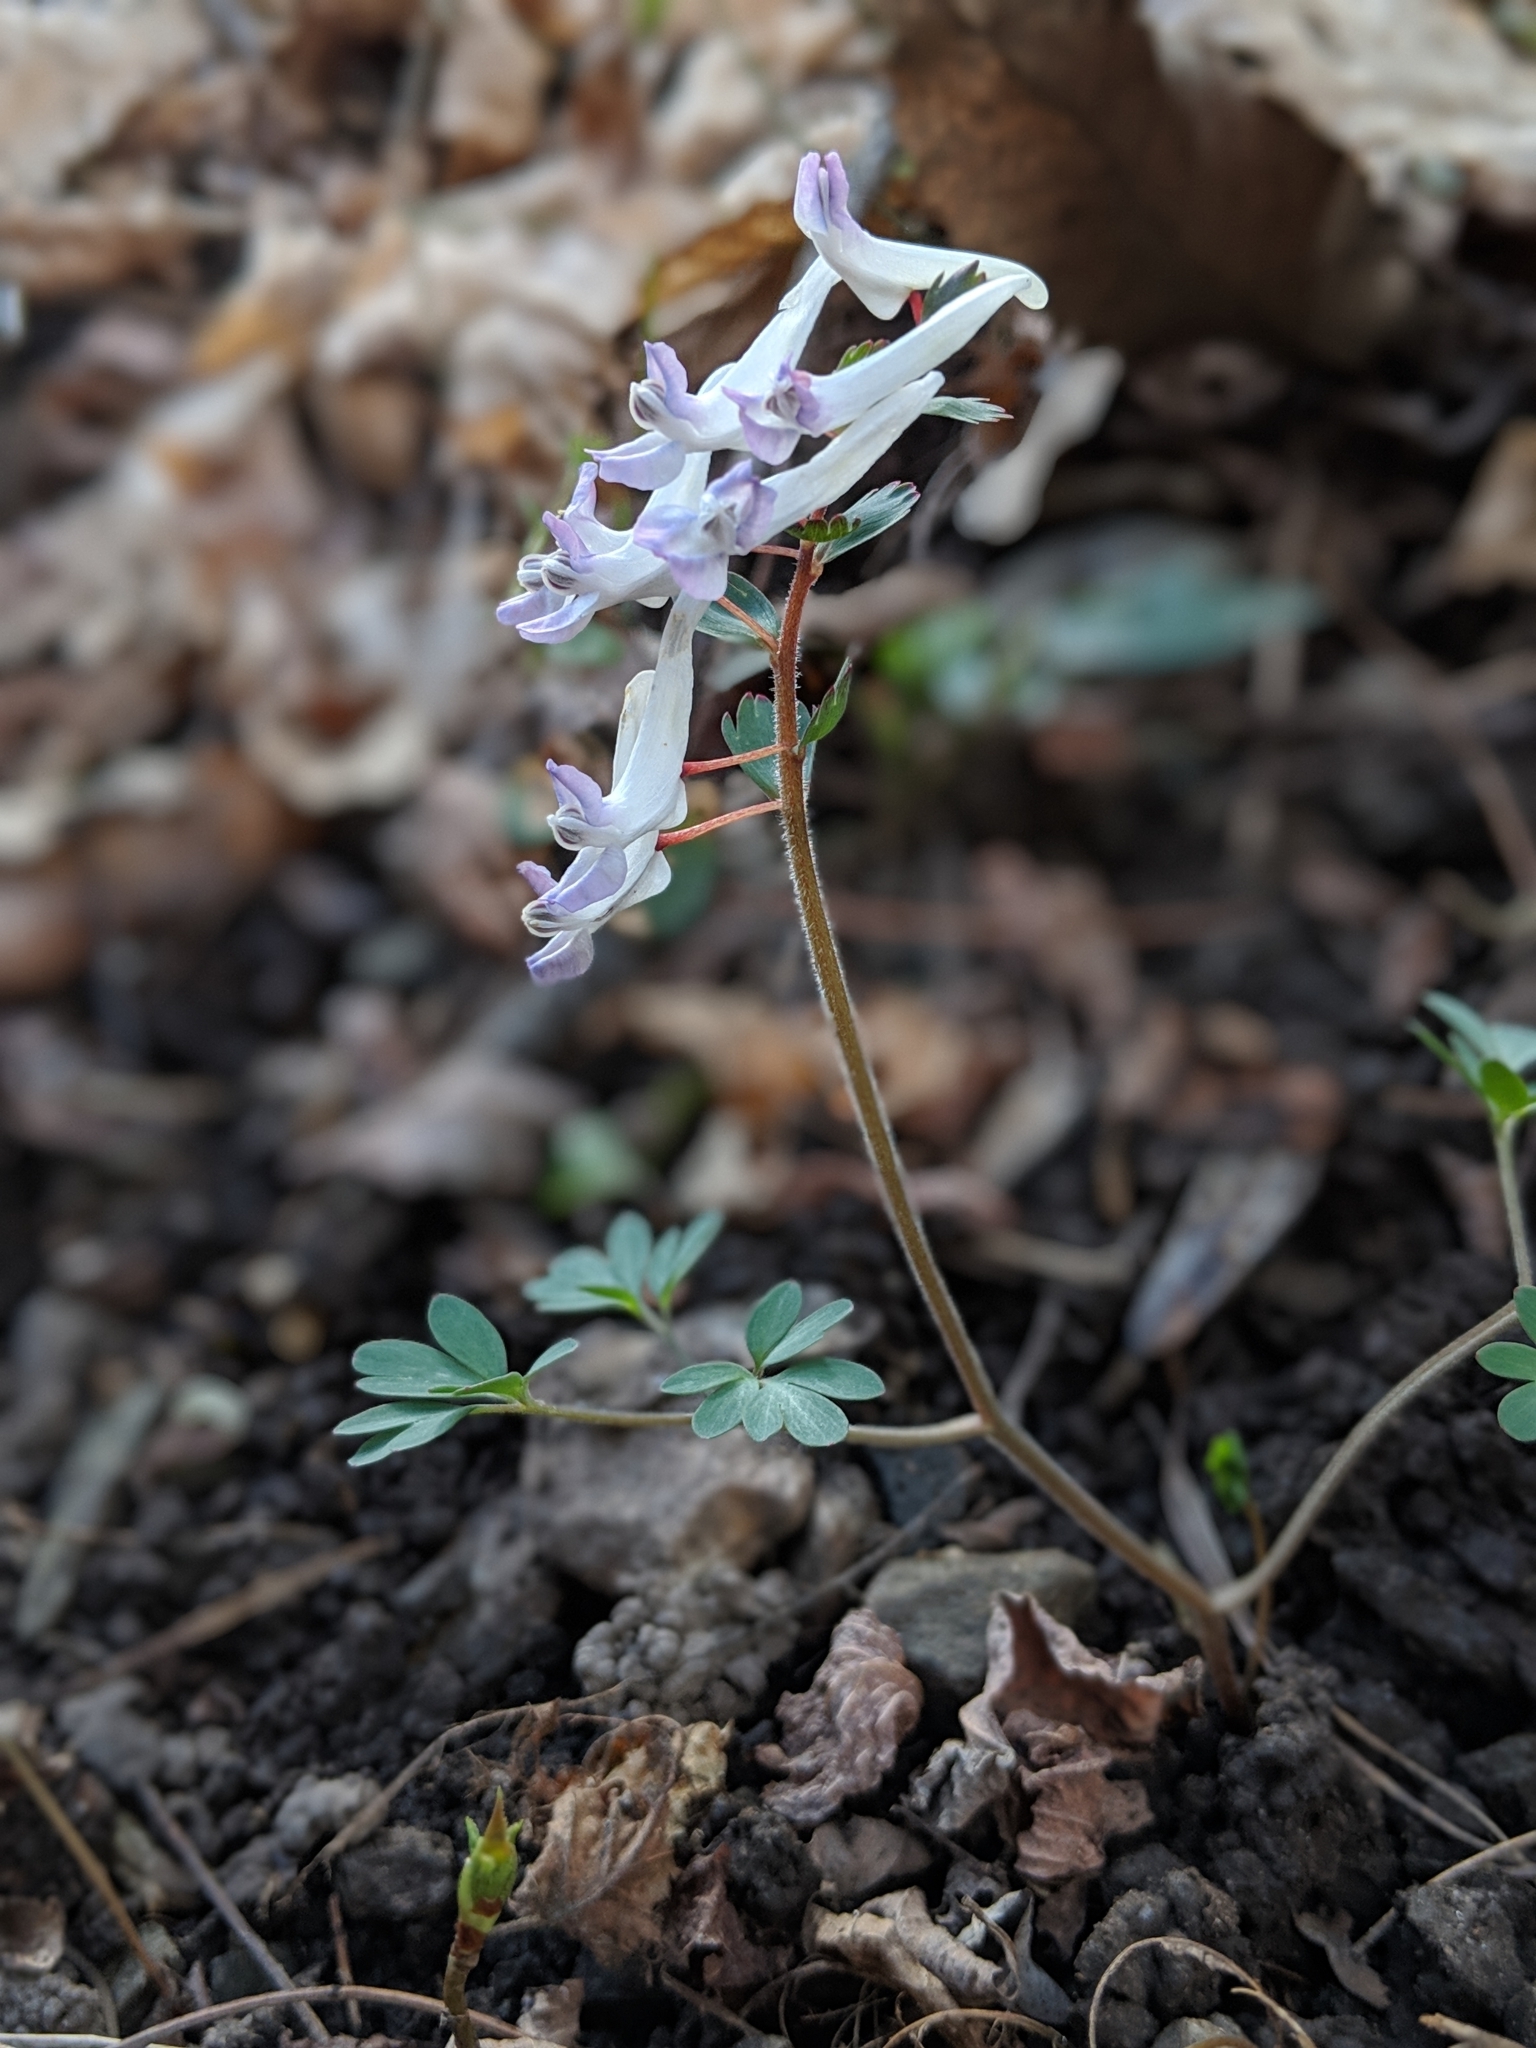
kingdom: Plantae
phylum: Tracheophyta
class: Magnoliopsida
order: Ranunculales
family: Papaveraceae
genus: Corydalis
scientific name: Corydalis solida
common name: Bird-in-a-bush
